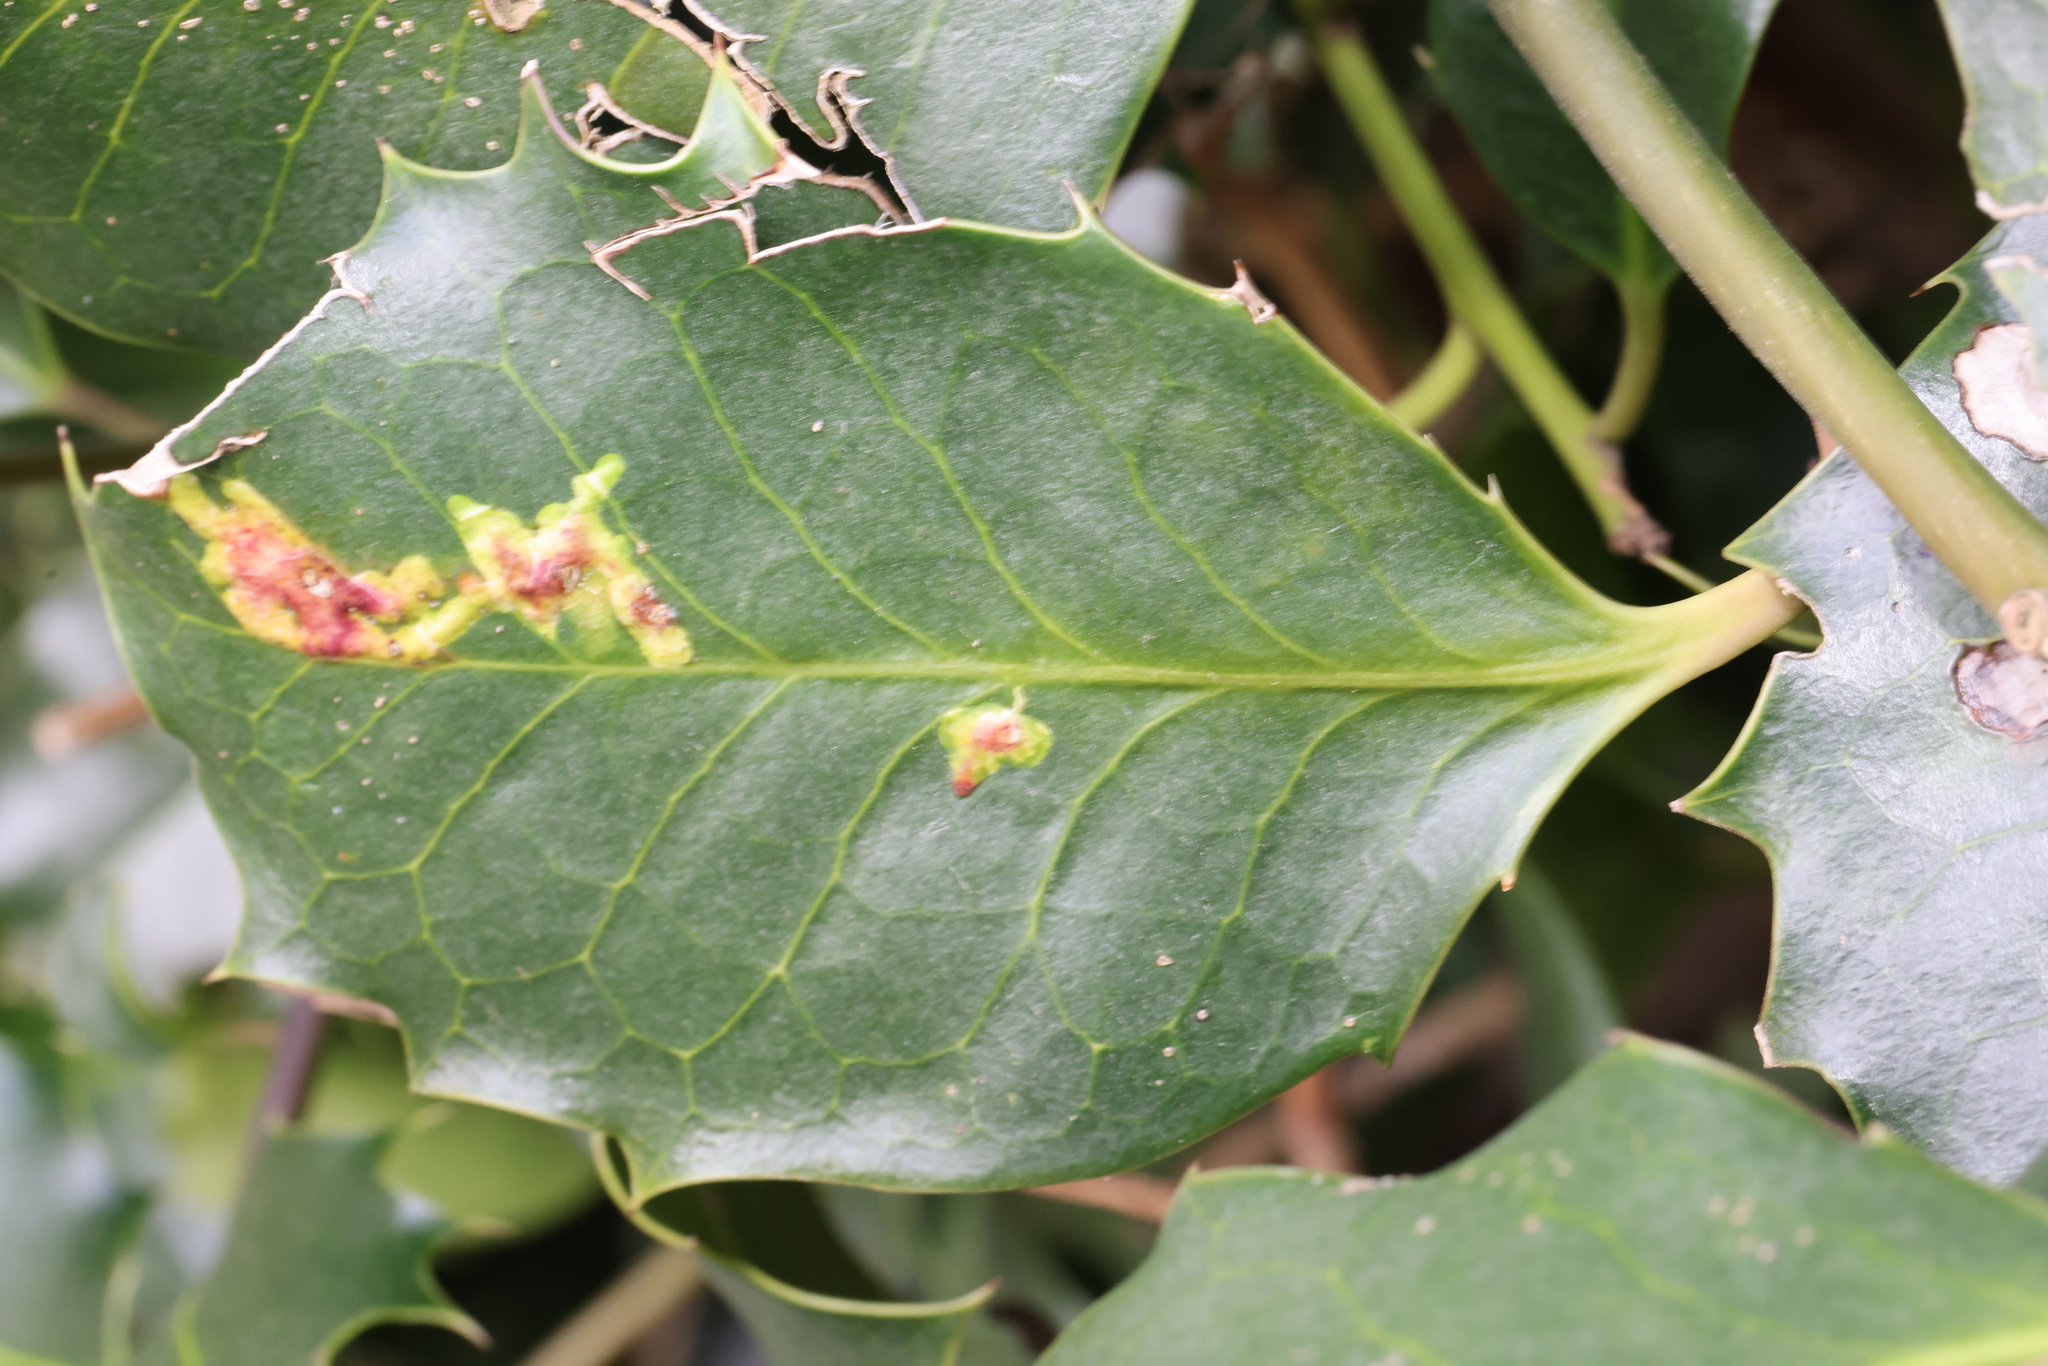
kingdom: Animalia
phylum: Arthropoda
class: Insecta
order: Diptera
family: Agromyzidae
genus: Phytomyza
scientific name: Phytomyza ilicis
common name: Holly leafminer
